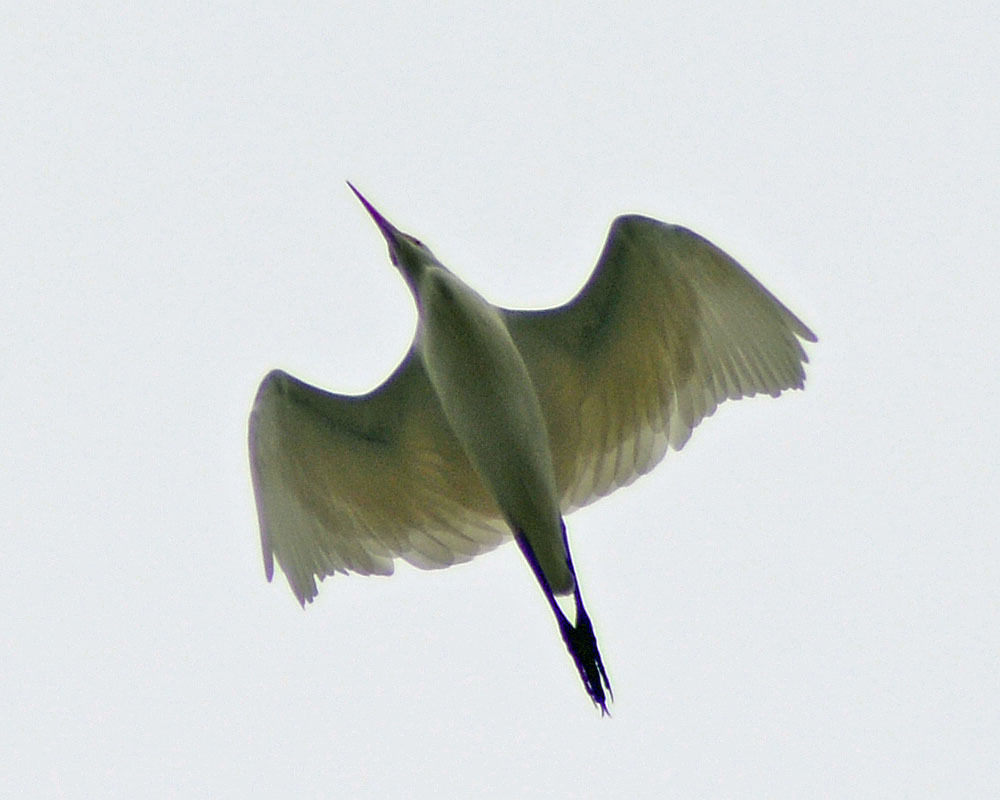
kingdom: Animalia
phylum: Chordata
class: Aves
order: Pelecaniformes
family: Ardeidae
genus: Ardea
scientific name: Ardea alba
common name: Great egret
